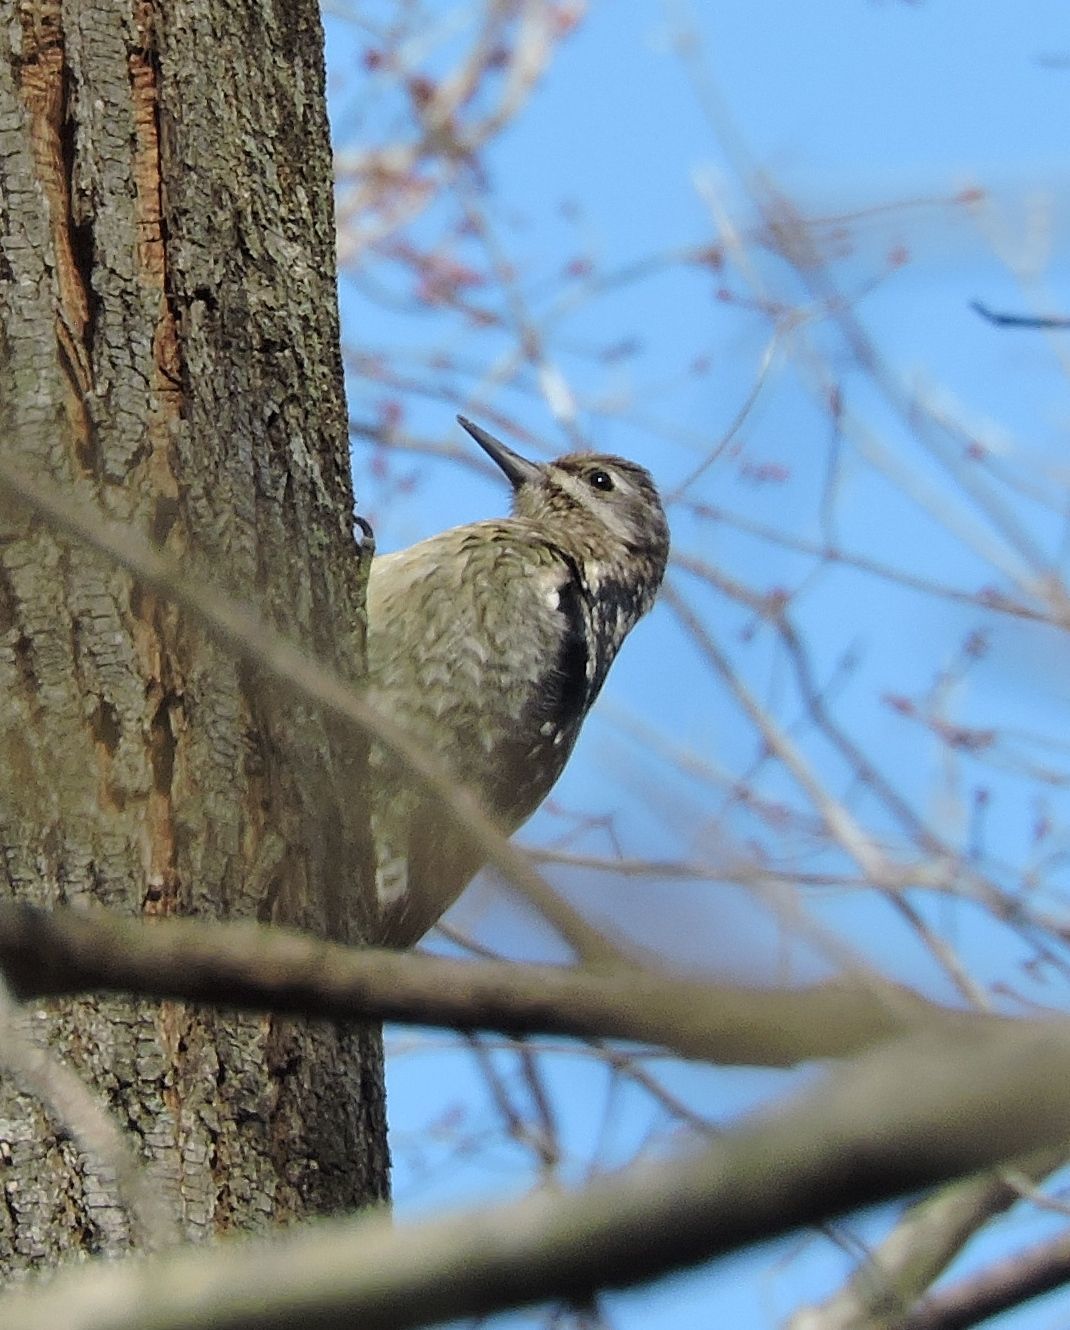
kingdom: Animalia
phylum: Chordata
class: Aves
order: Piciformes
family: Picidae
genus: Sphyrapicus
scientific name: Sphyrapicus varius
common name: Yellow-bellied sapsucker
